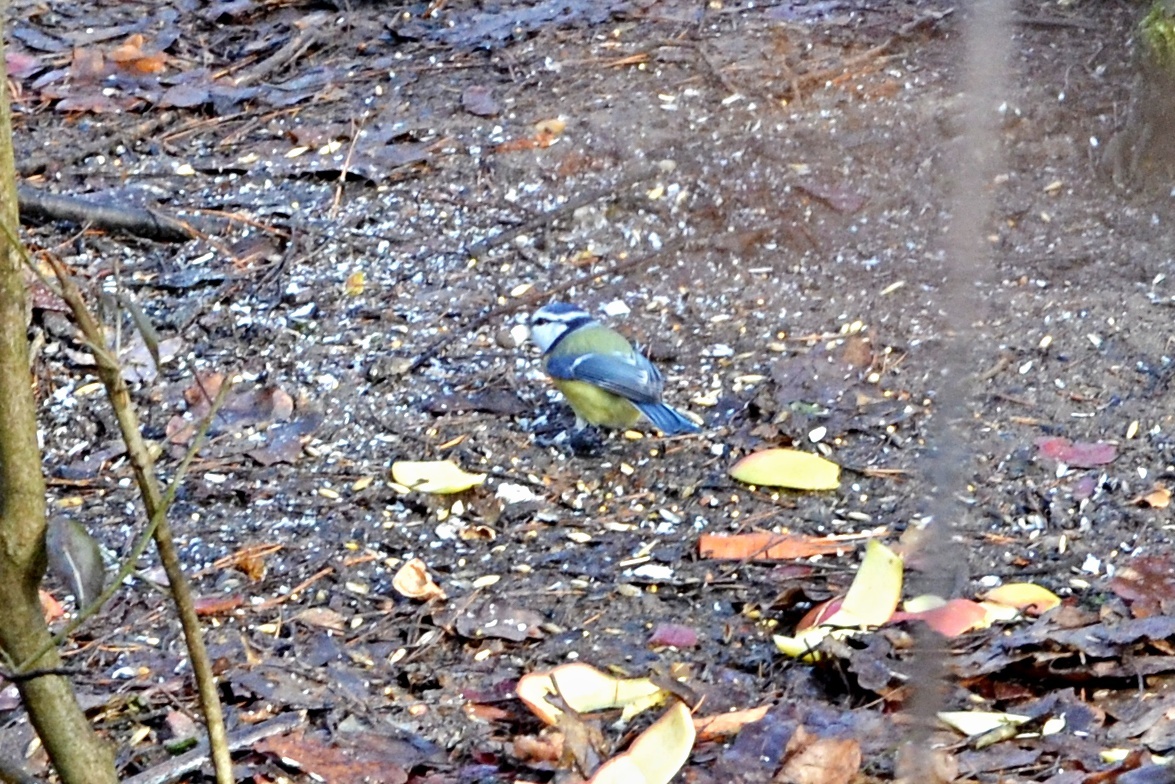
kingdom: Animalia
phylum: Chordata
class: Aves
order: Passeriformes
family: Paridae
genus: Cyanistes
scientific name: Cyanistes caeruleus
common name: Eurasian blue tit
